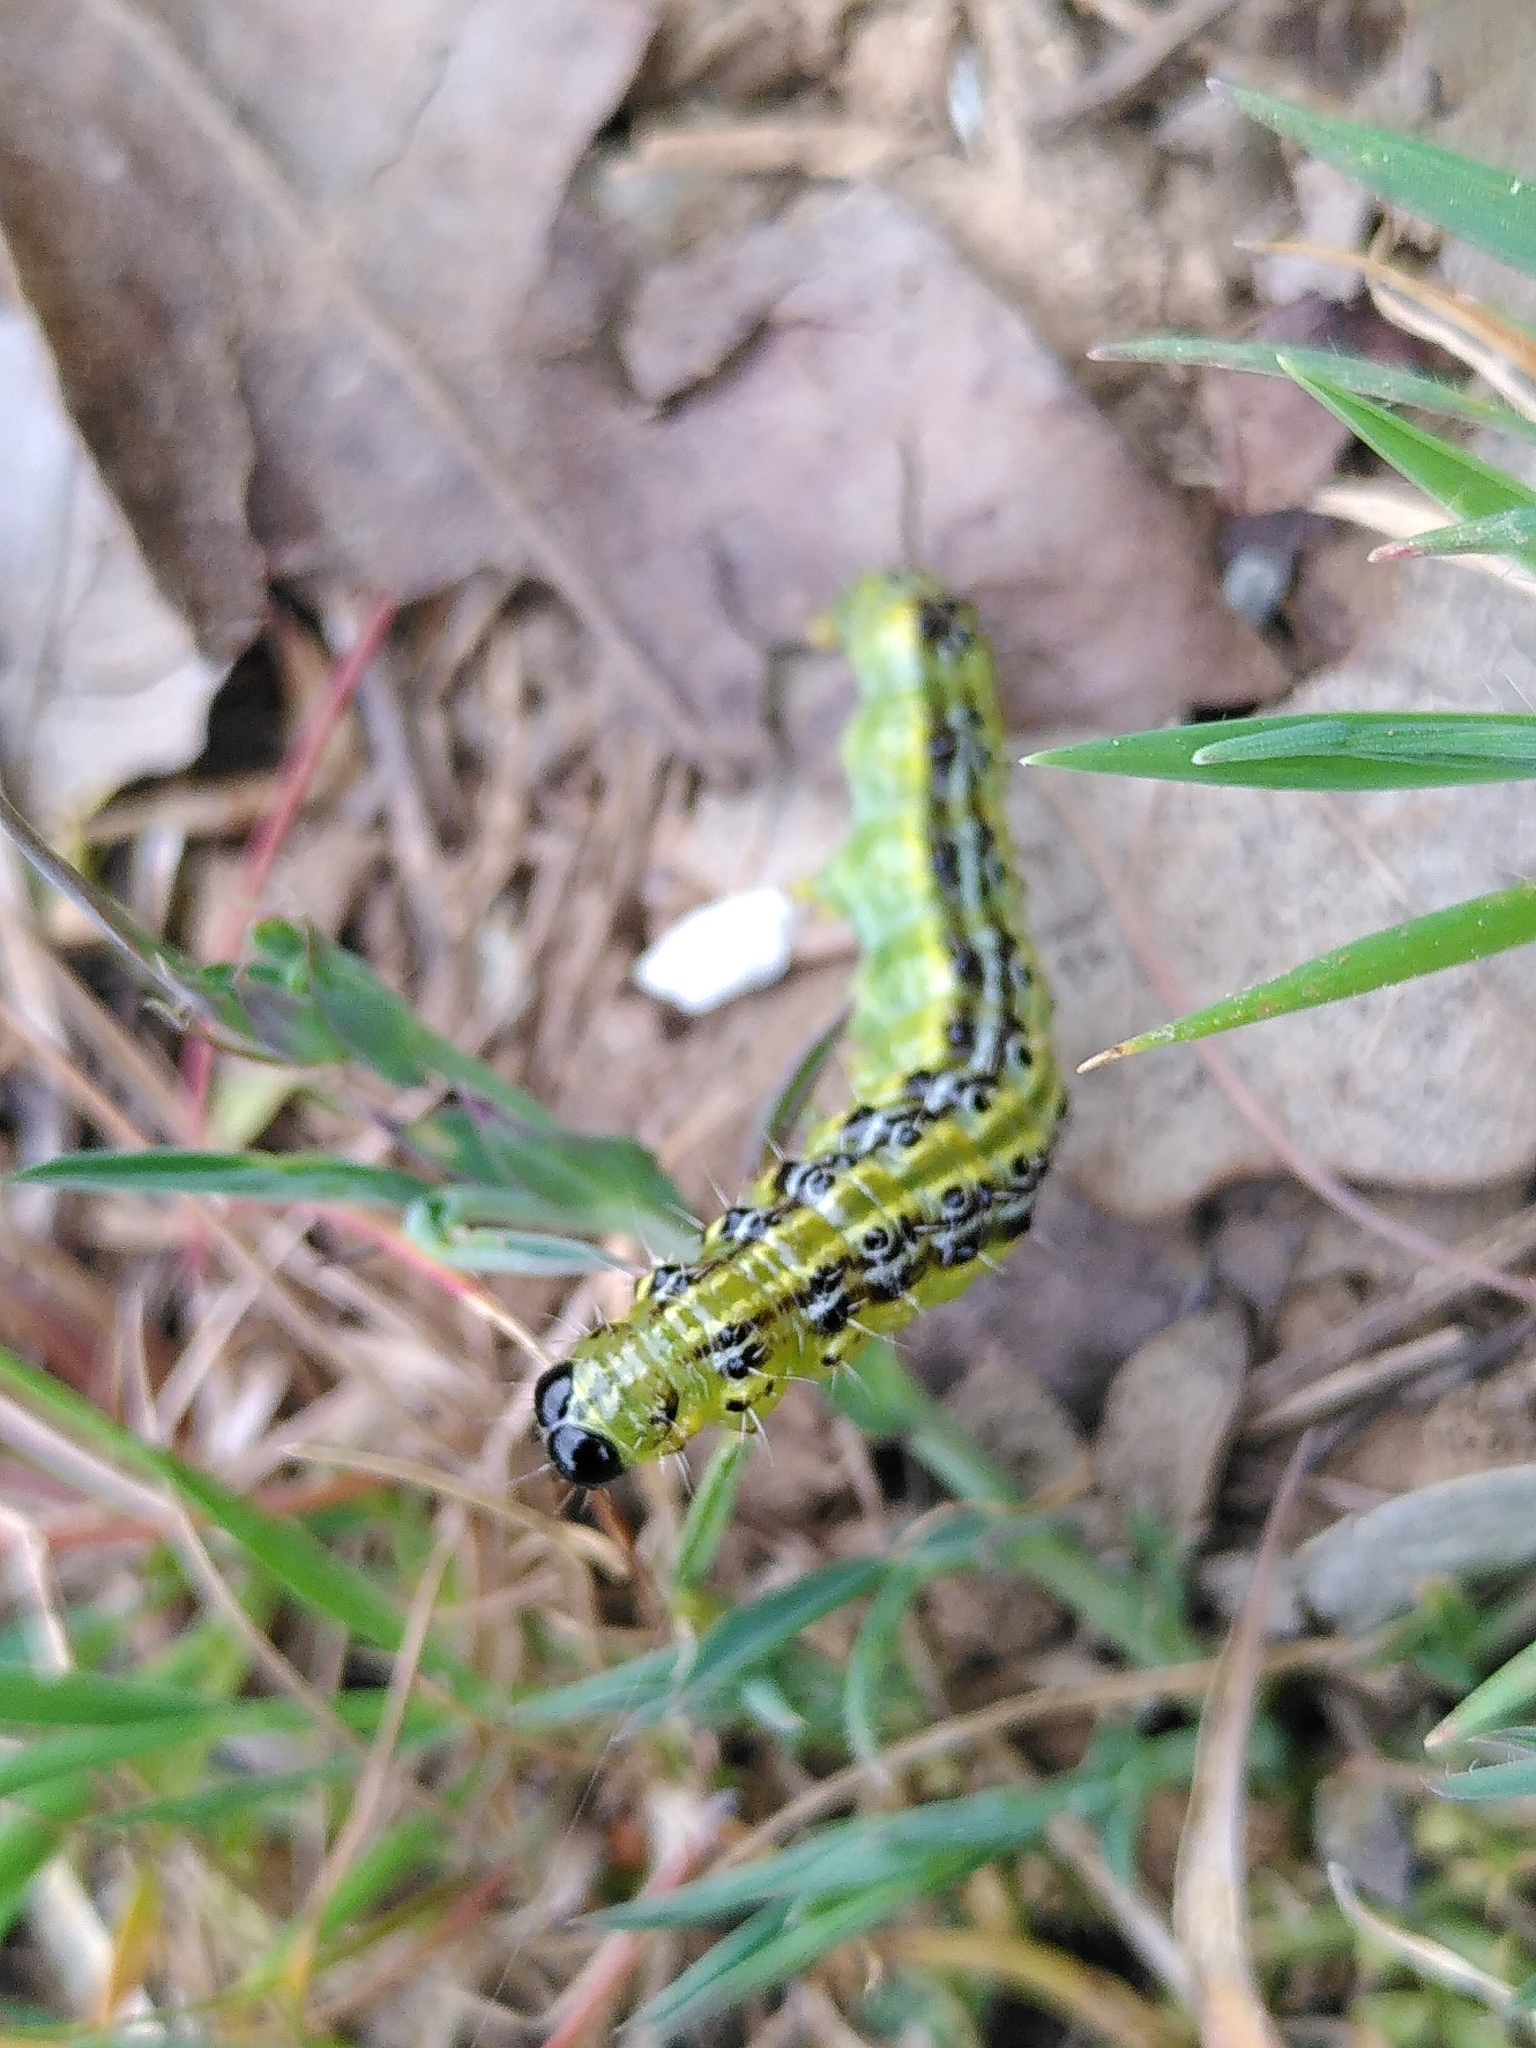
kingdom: Animalia
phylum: Arthropoda
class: Insecta
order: Lepidoptera
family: Crambidae
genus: Cydalima
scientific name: Cydalima perspectalis
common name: Box tree moth
